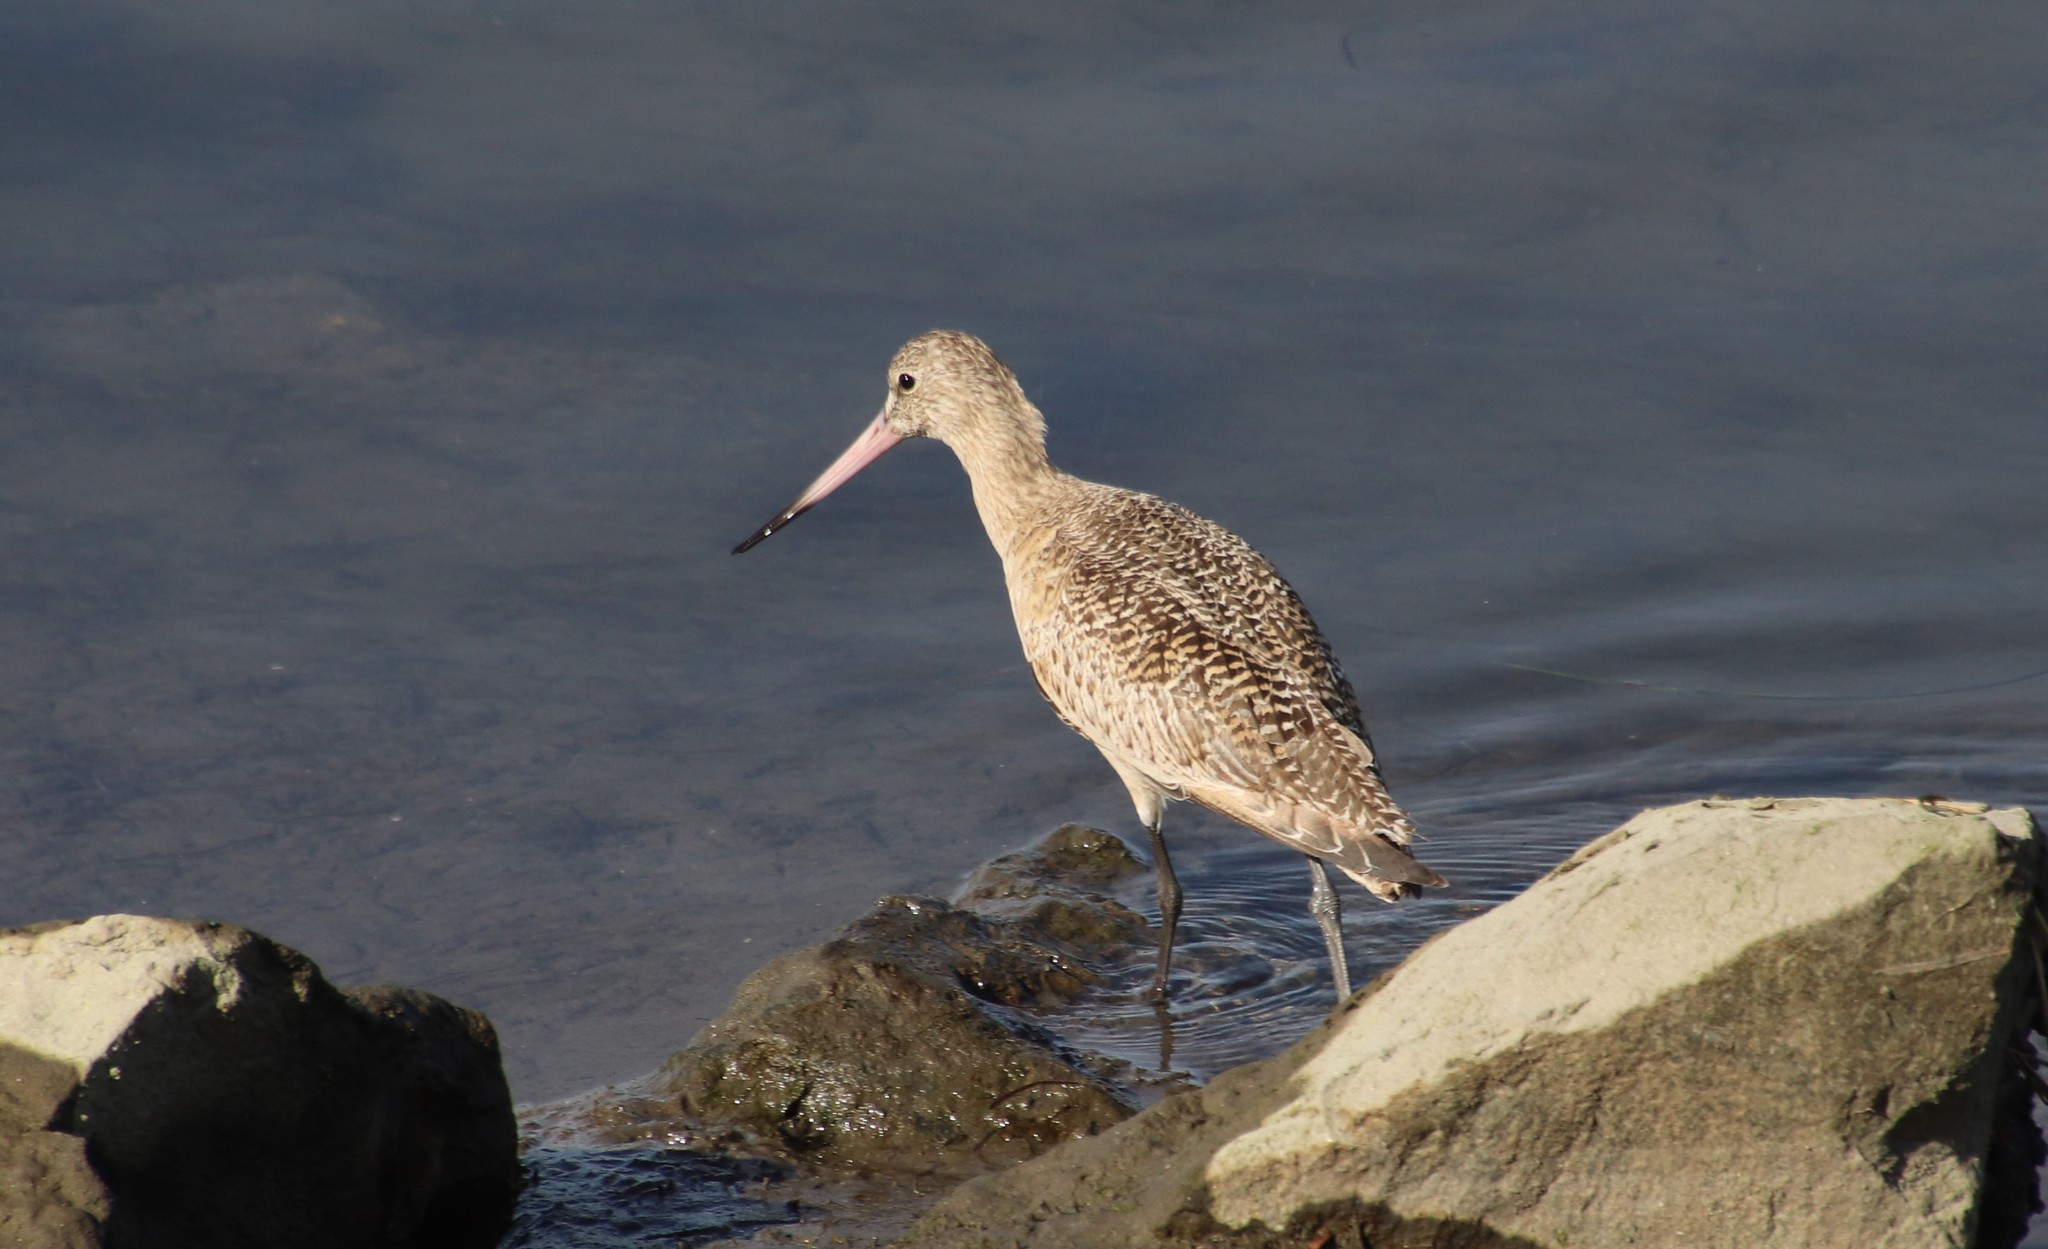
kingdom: Animalia
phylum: Chordata
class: Aves
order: Charadriiformes
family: Scolopacidae
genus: Limosa
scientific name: Limosa fedoa
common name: Marbled godwit
